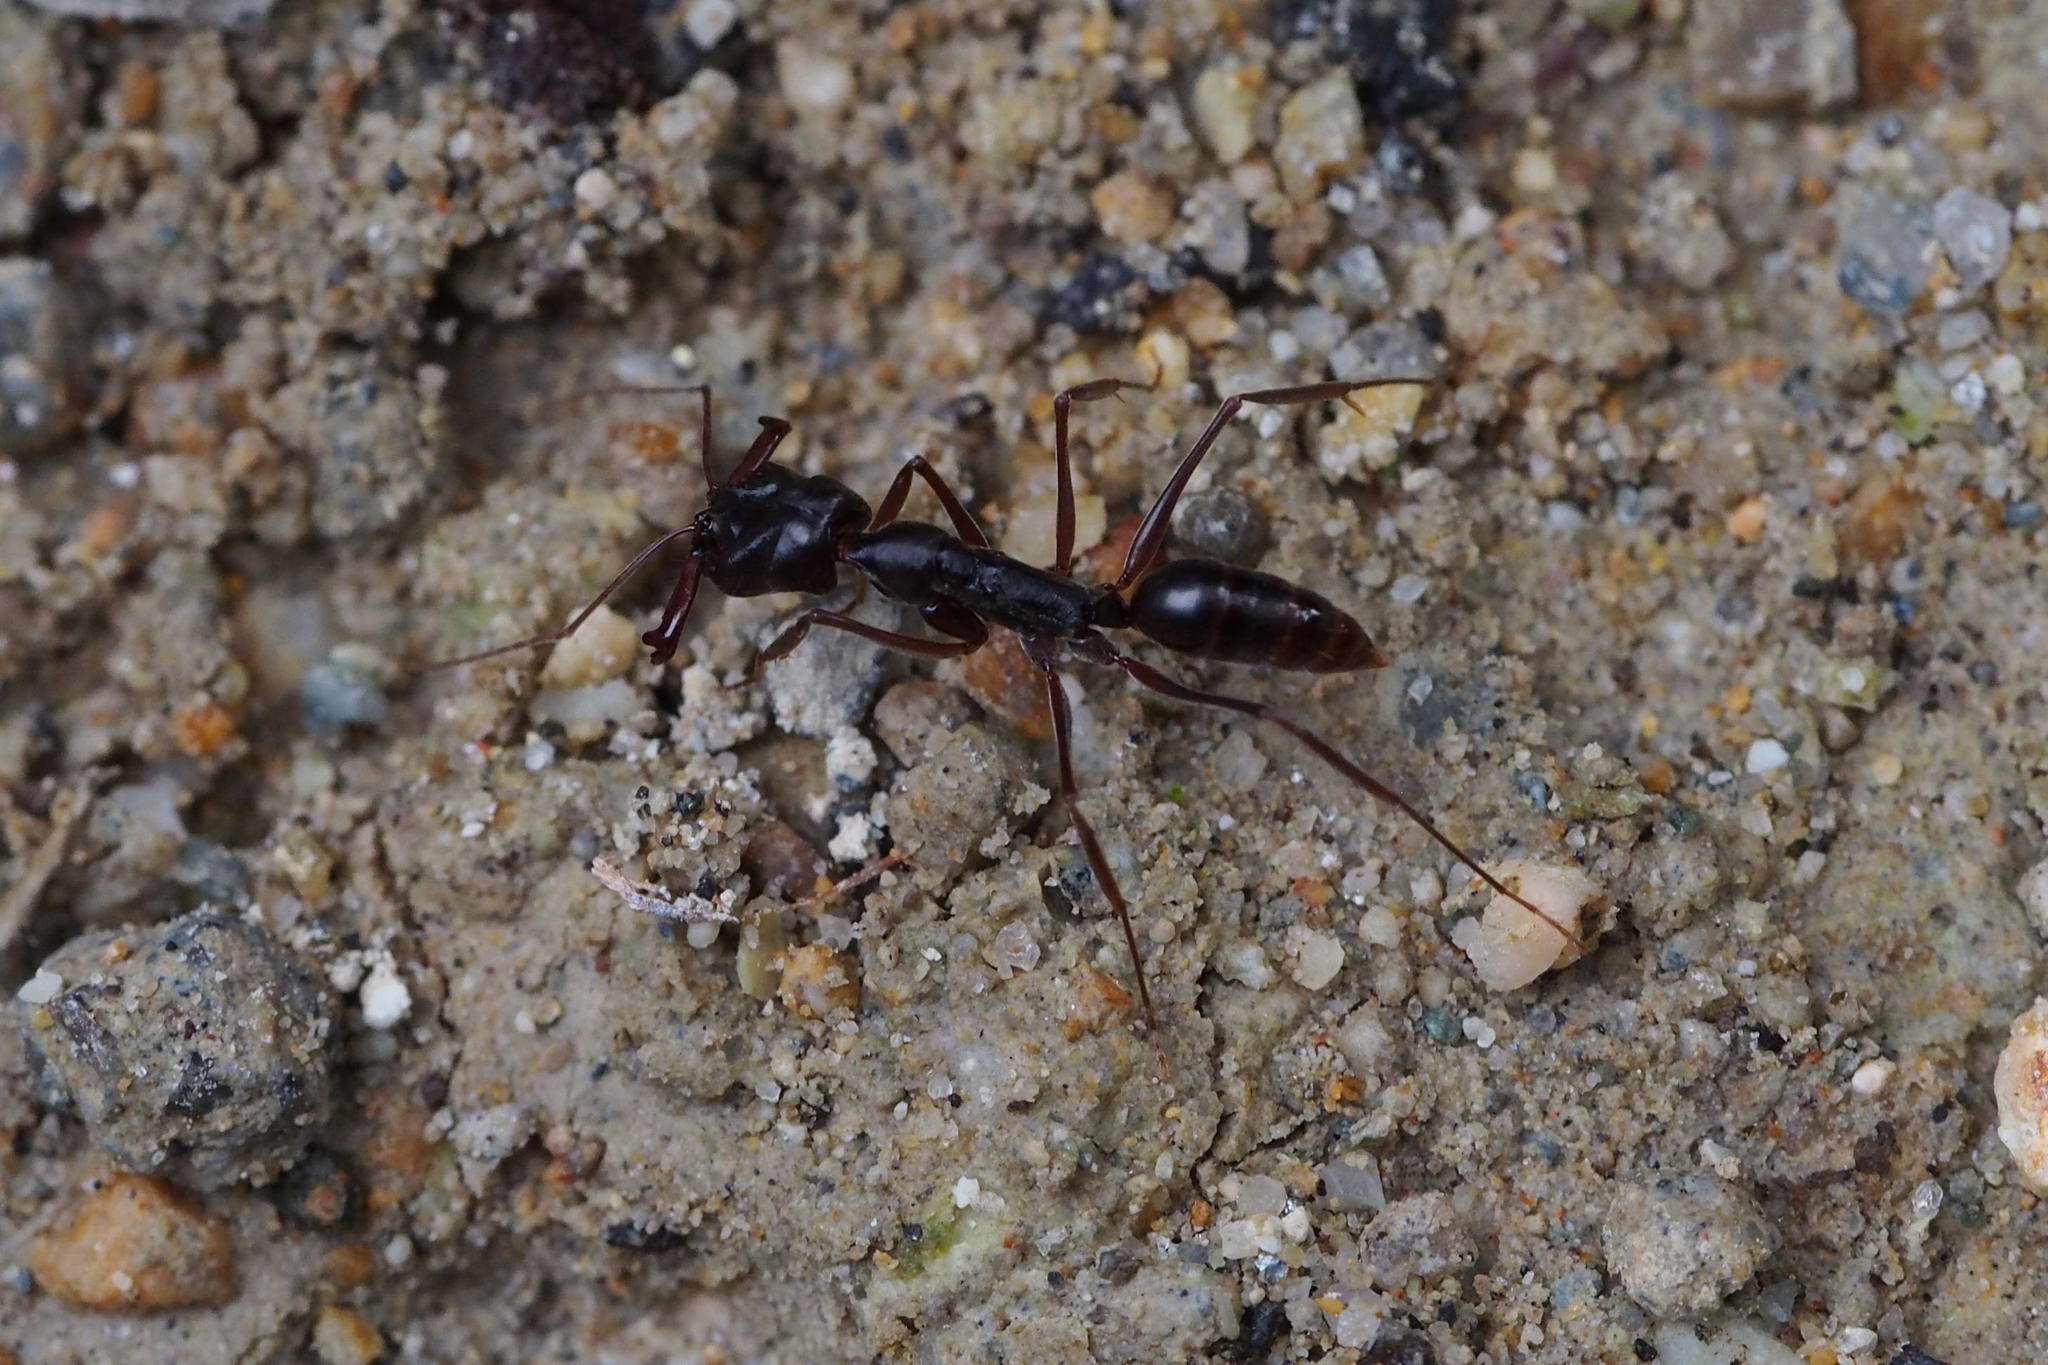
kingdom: Animalia
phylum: Arthropoda
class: Insecta
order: Hymenoptera
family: Formicidae
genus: Odontomachus
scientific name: Odontomachus monticola
